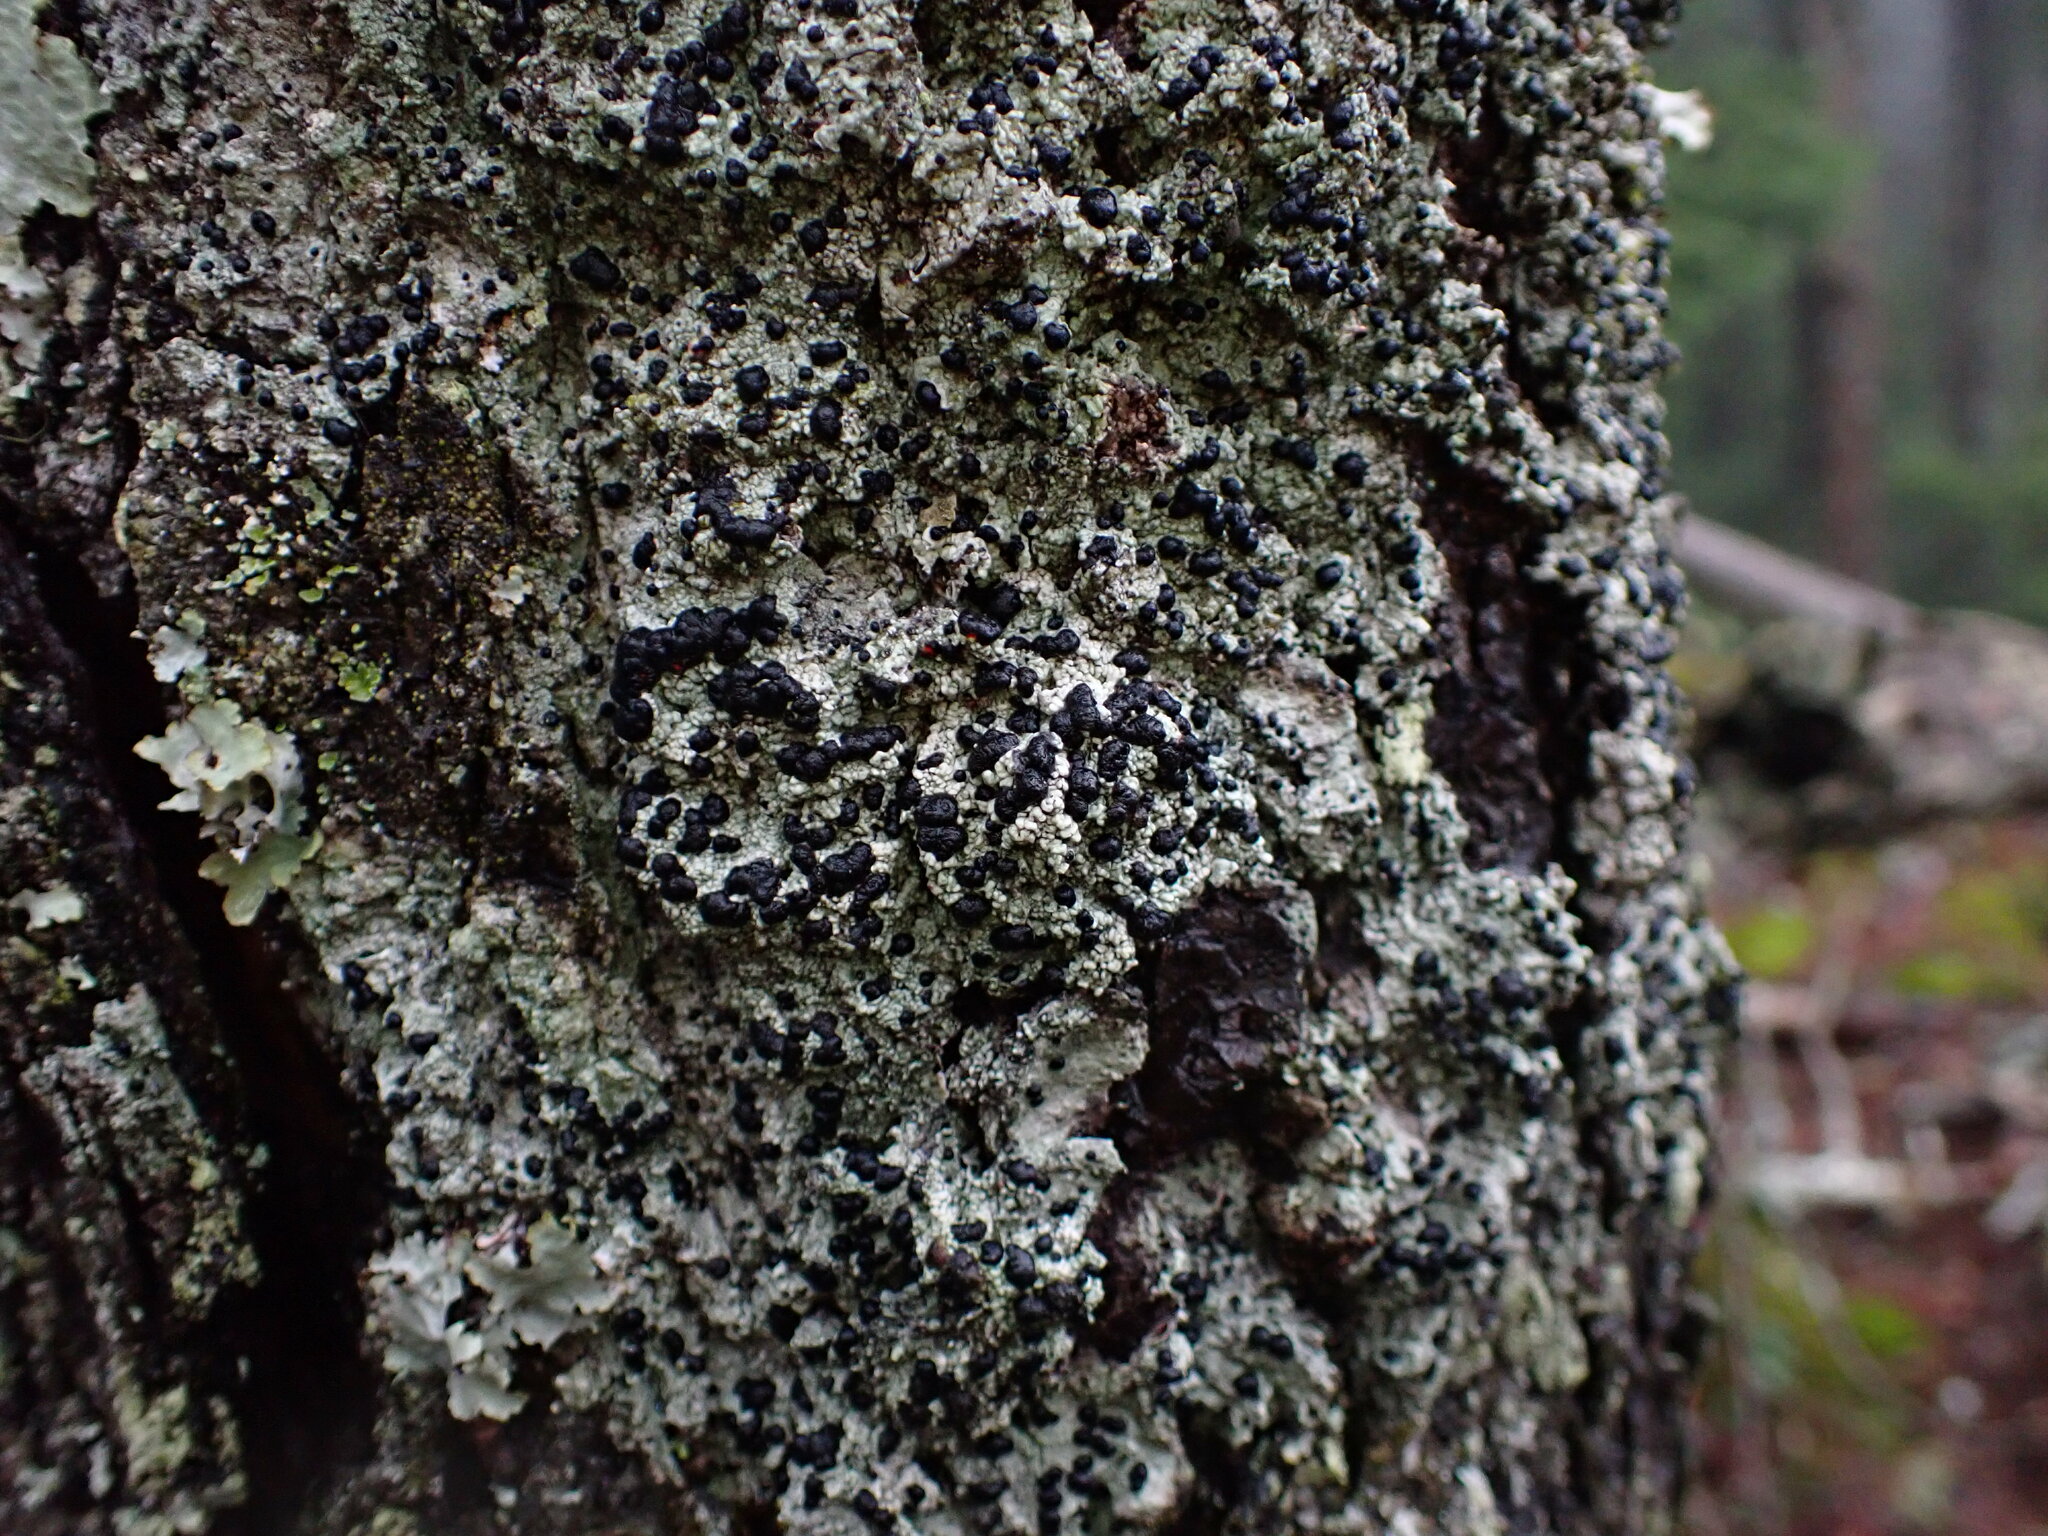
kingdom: Fungi
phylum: Ascomycota
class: Lecanoromycetes
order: Lecanorales
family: Tephromelataceae
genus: Mycoblastus
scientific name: Mycoblastus sanguinarius
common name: Bloody-heart lichen
